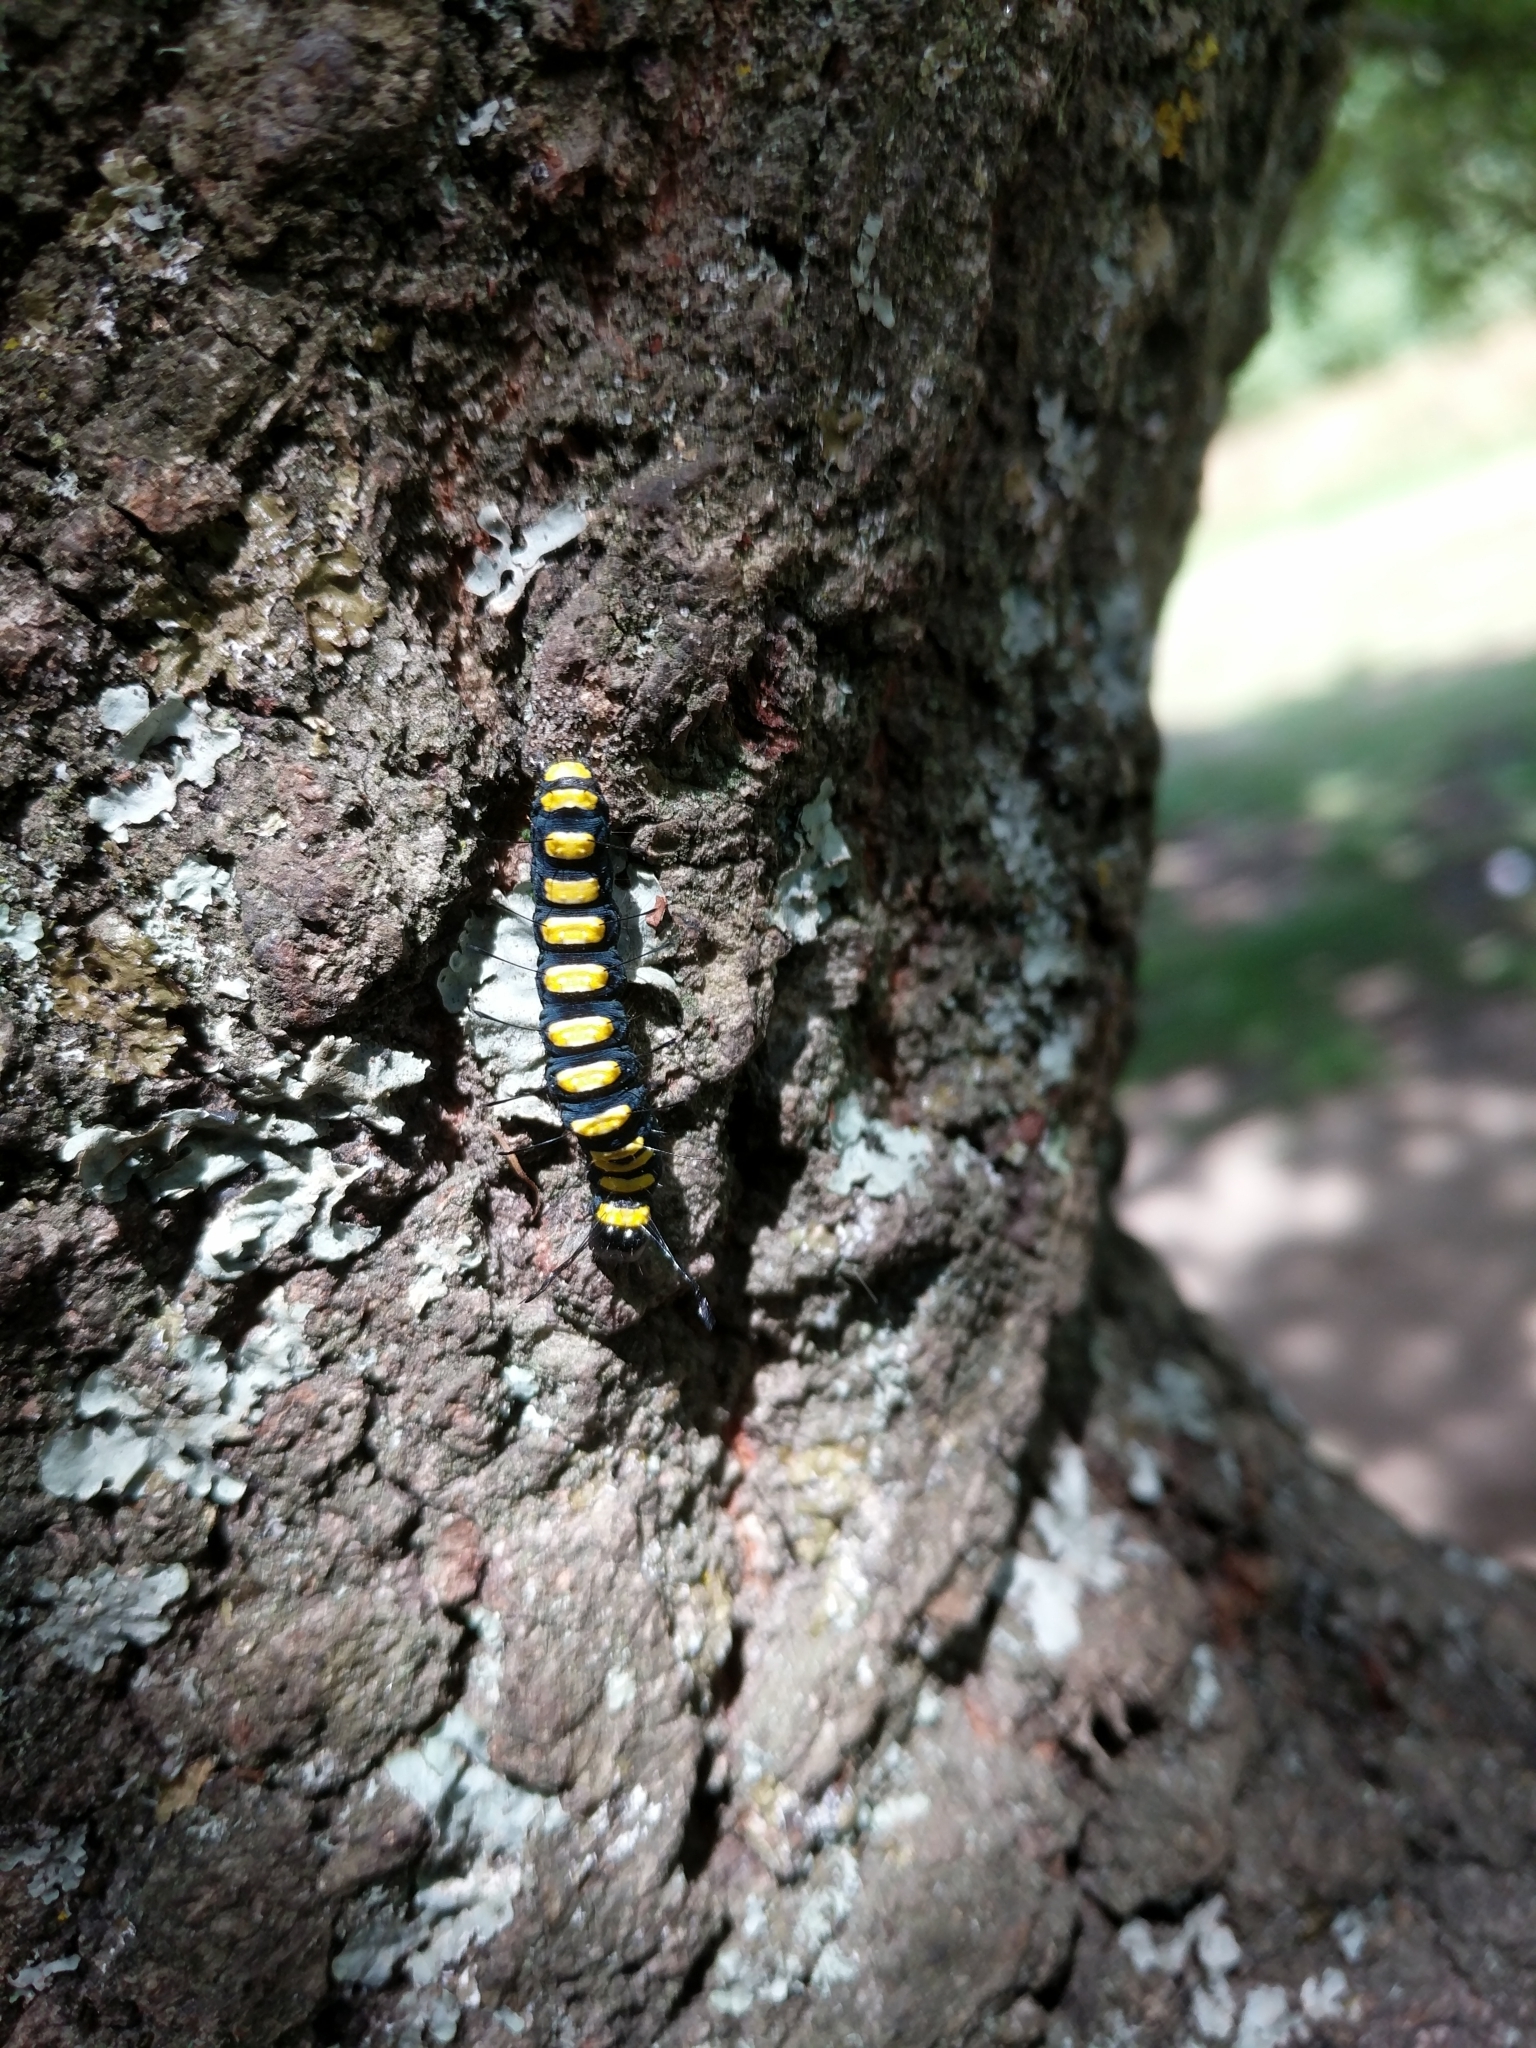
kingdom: Animalia
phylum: Arthropoda
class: Insecta
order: Lepidoptera
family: Noctuidae
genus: Acronicta
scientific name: Acronicta alni
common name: Alder moth
